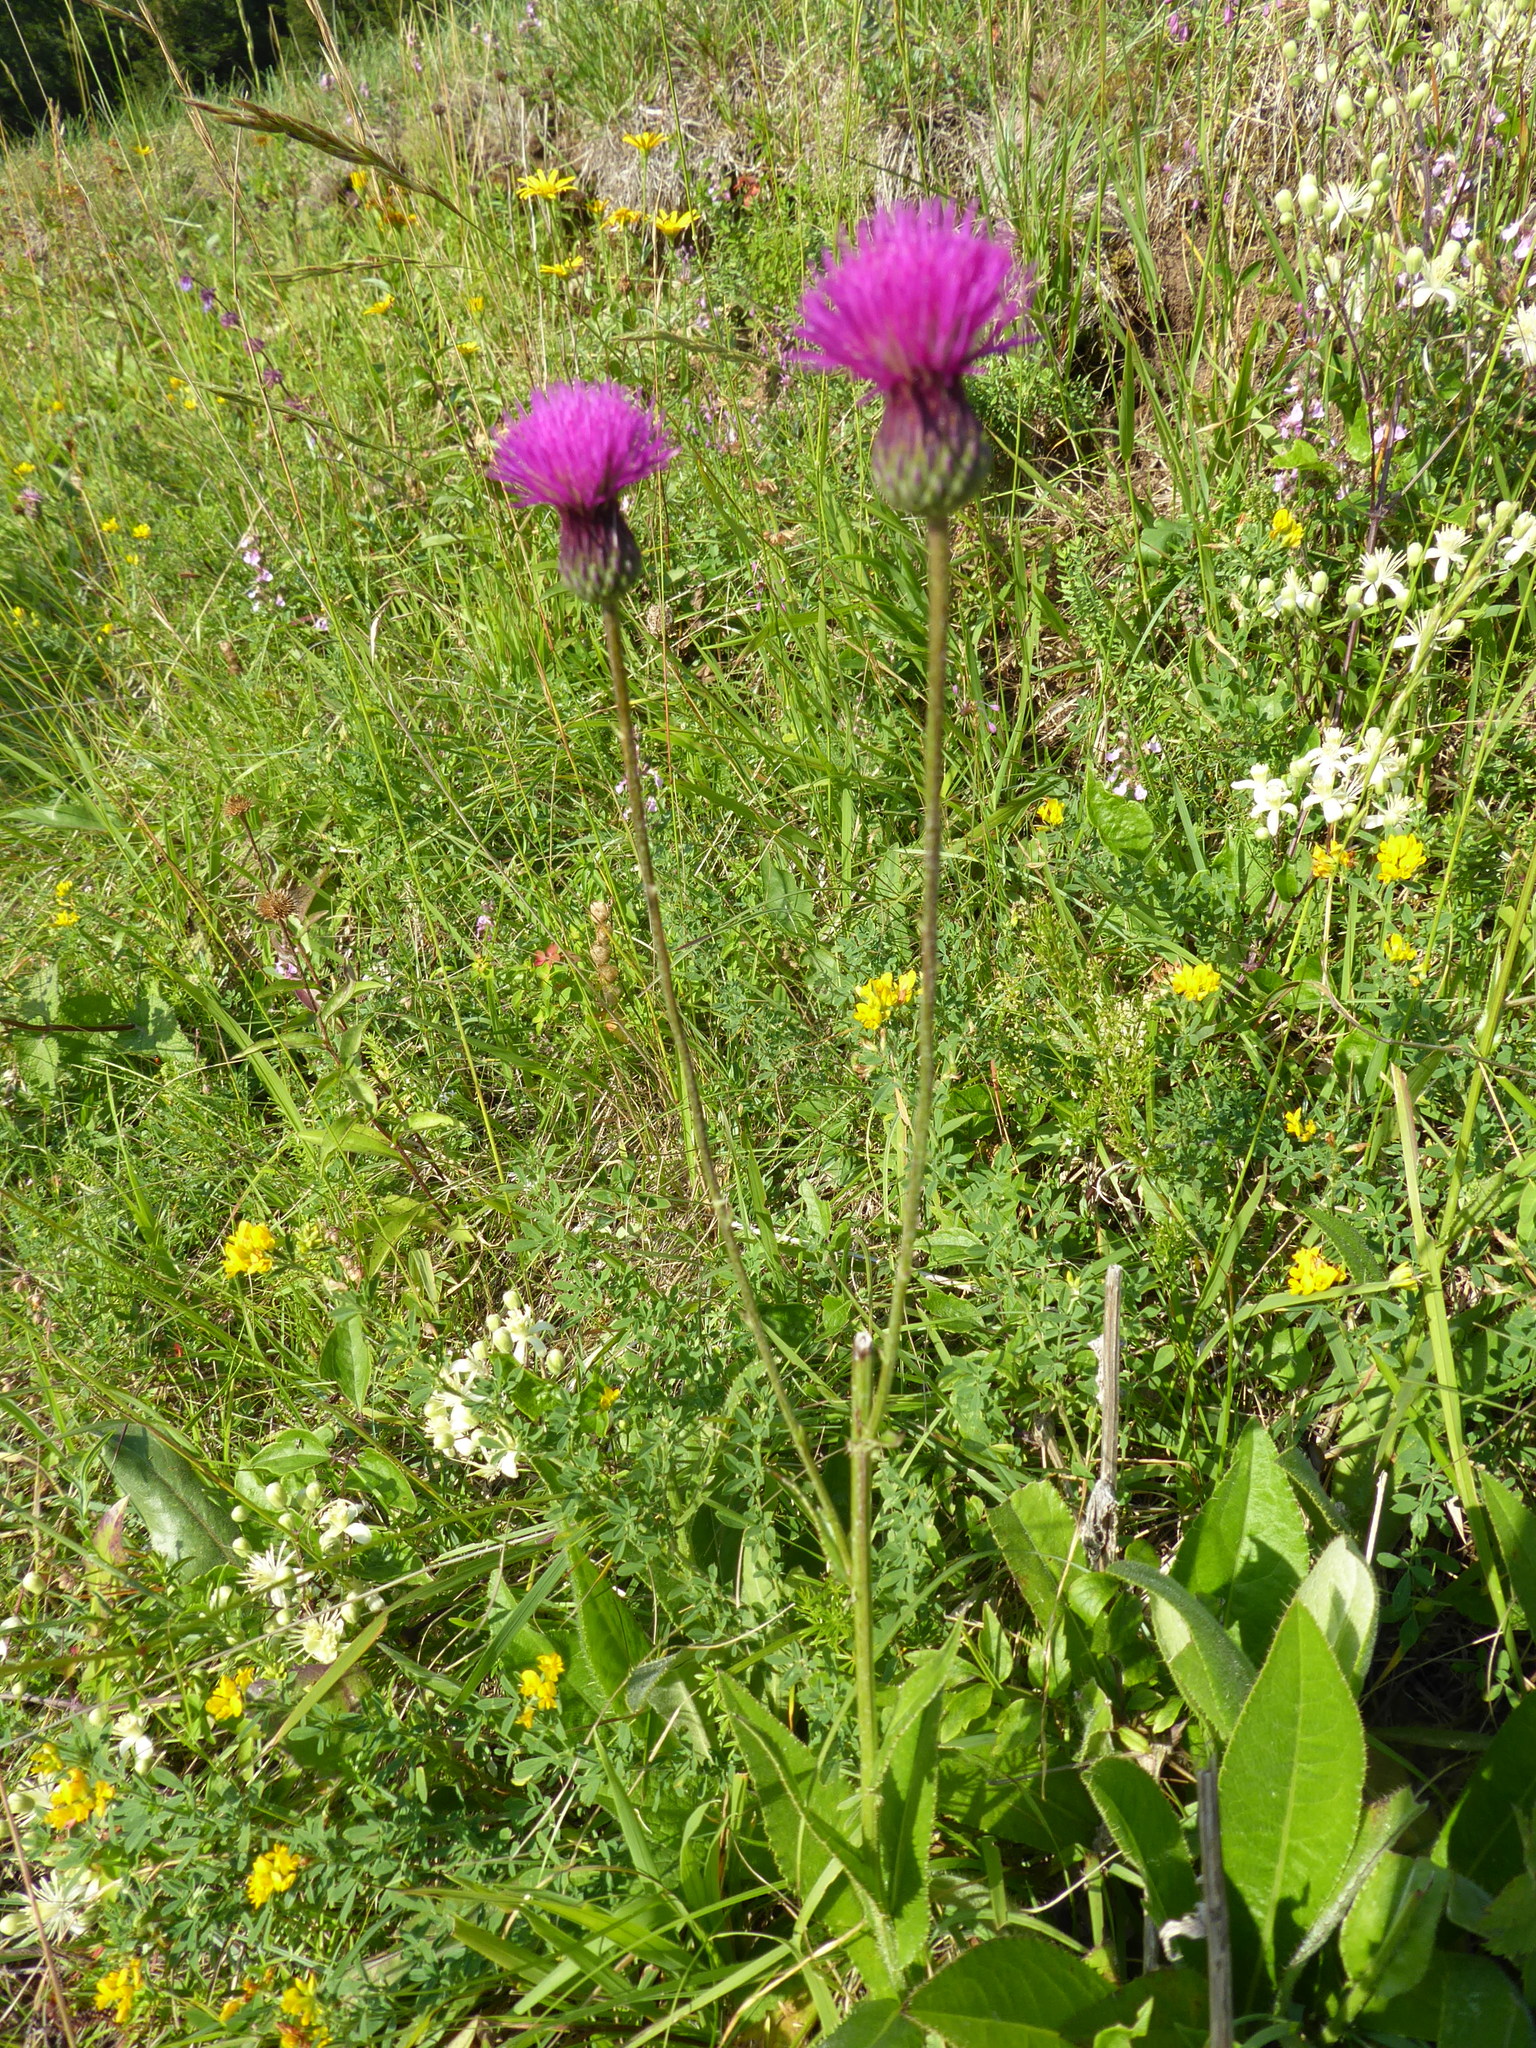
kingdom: Plantae
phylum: Tracheophyta
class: Magnoliopsida
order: Asterales
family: Asteraceae
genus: Cirsium
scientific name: Cirsium pannonicum
